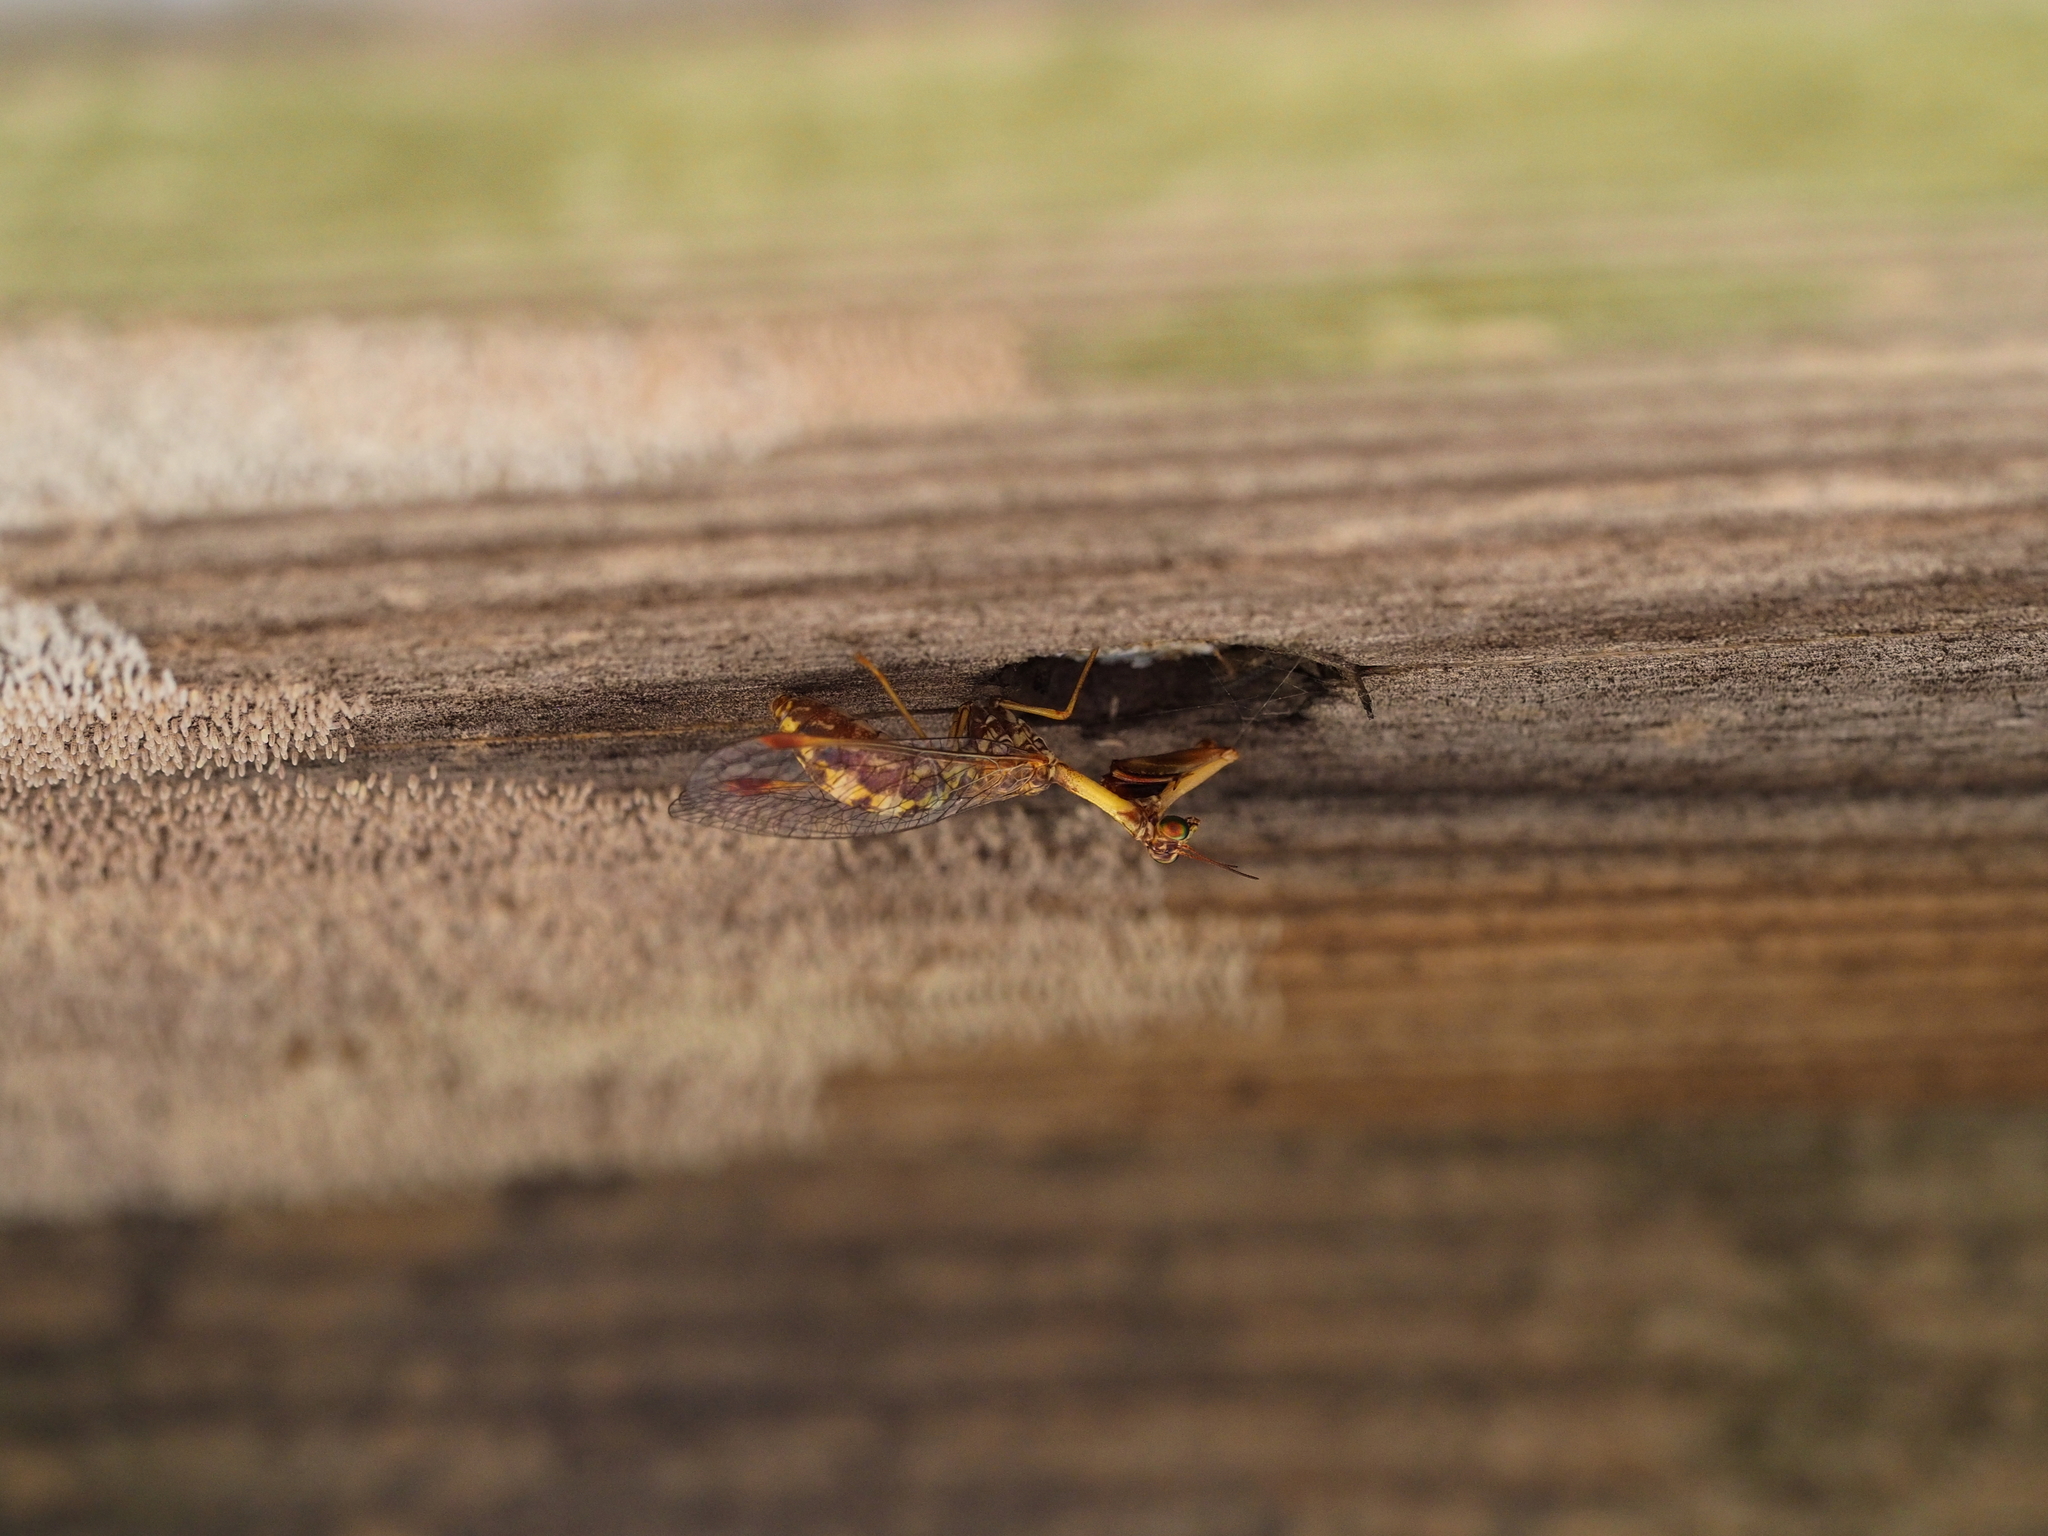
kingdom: Animalia
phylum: Arthropoda
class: Insecta
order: Neuroptera
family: Mantispidae
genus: Mantispa
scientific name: Mantispa styriaca
